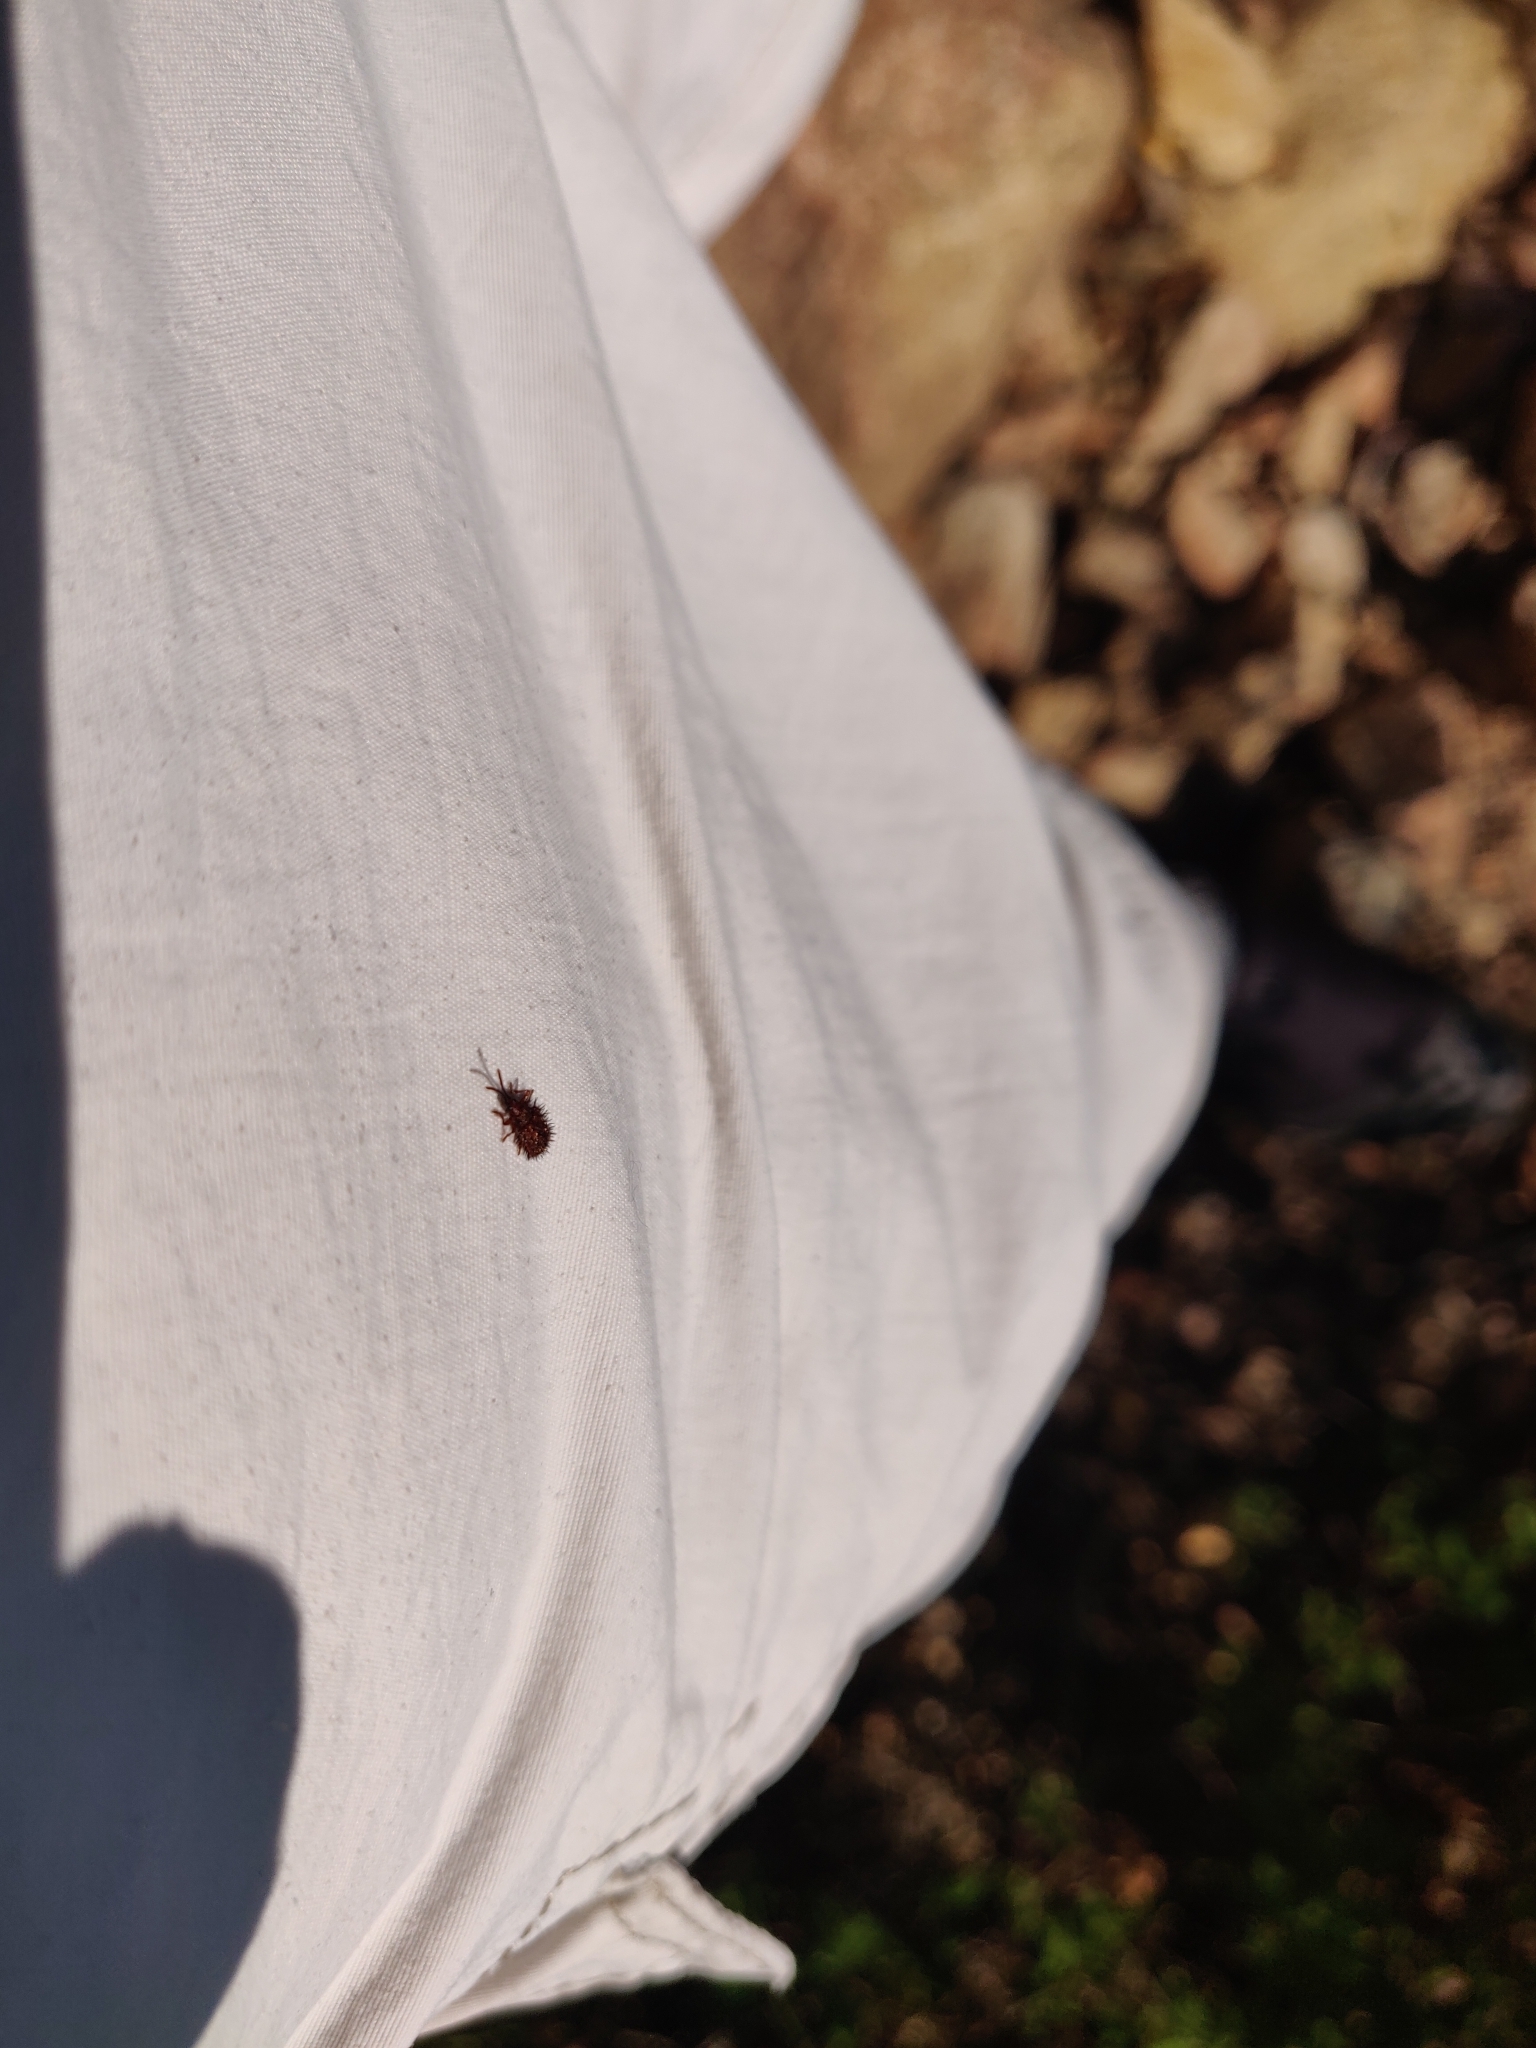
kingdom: Animalia
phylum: Arthropoda
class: Insecta
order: Coleoptera
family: Chrysomelidae
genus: Dicladispa
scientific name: Dicladispa testacea
